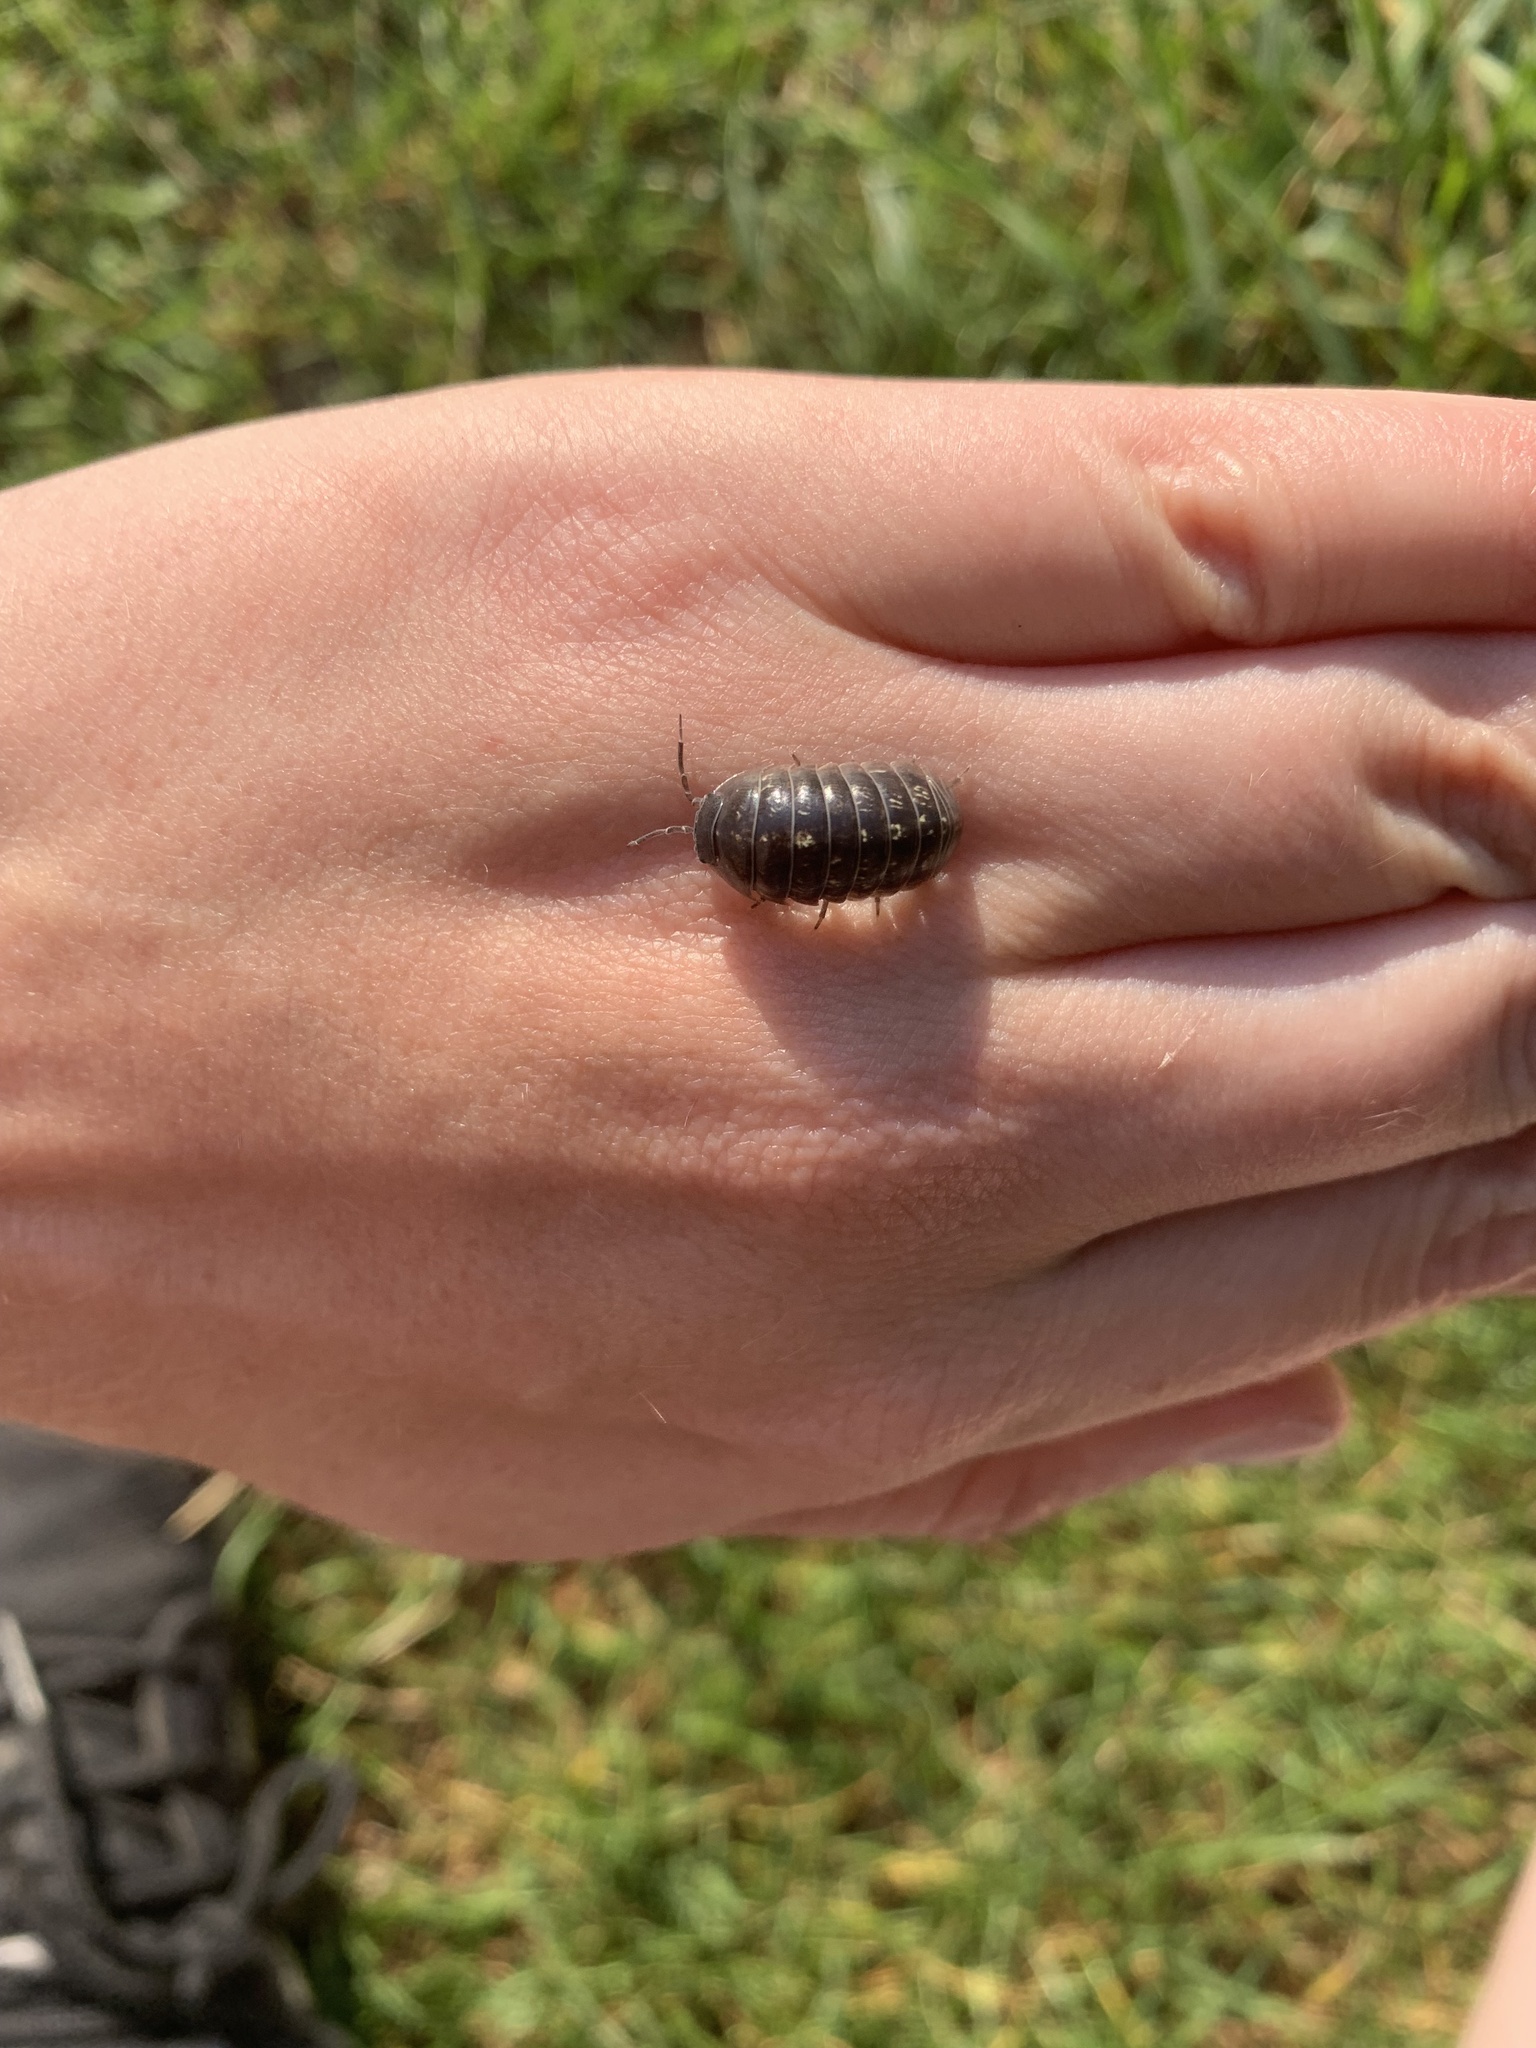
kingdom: Animalia
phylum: Arthropoda
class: Malacostraca
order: Isopoda
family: Armadillidiidae
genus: Armadillidium
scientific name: Armadillidium vulgare
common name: Common pill woodlouse
